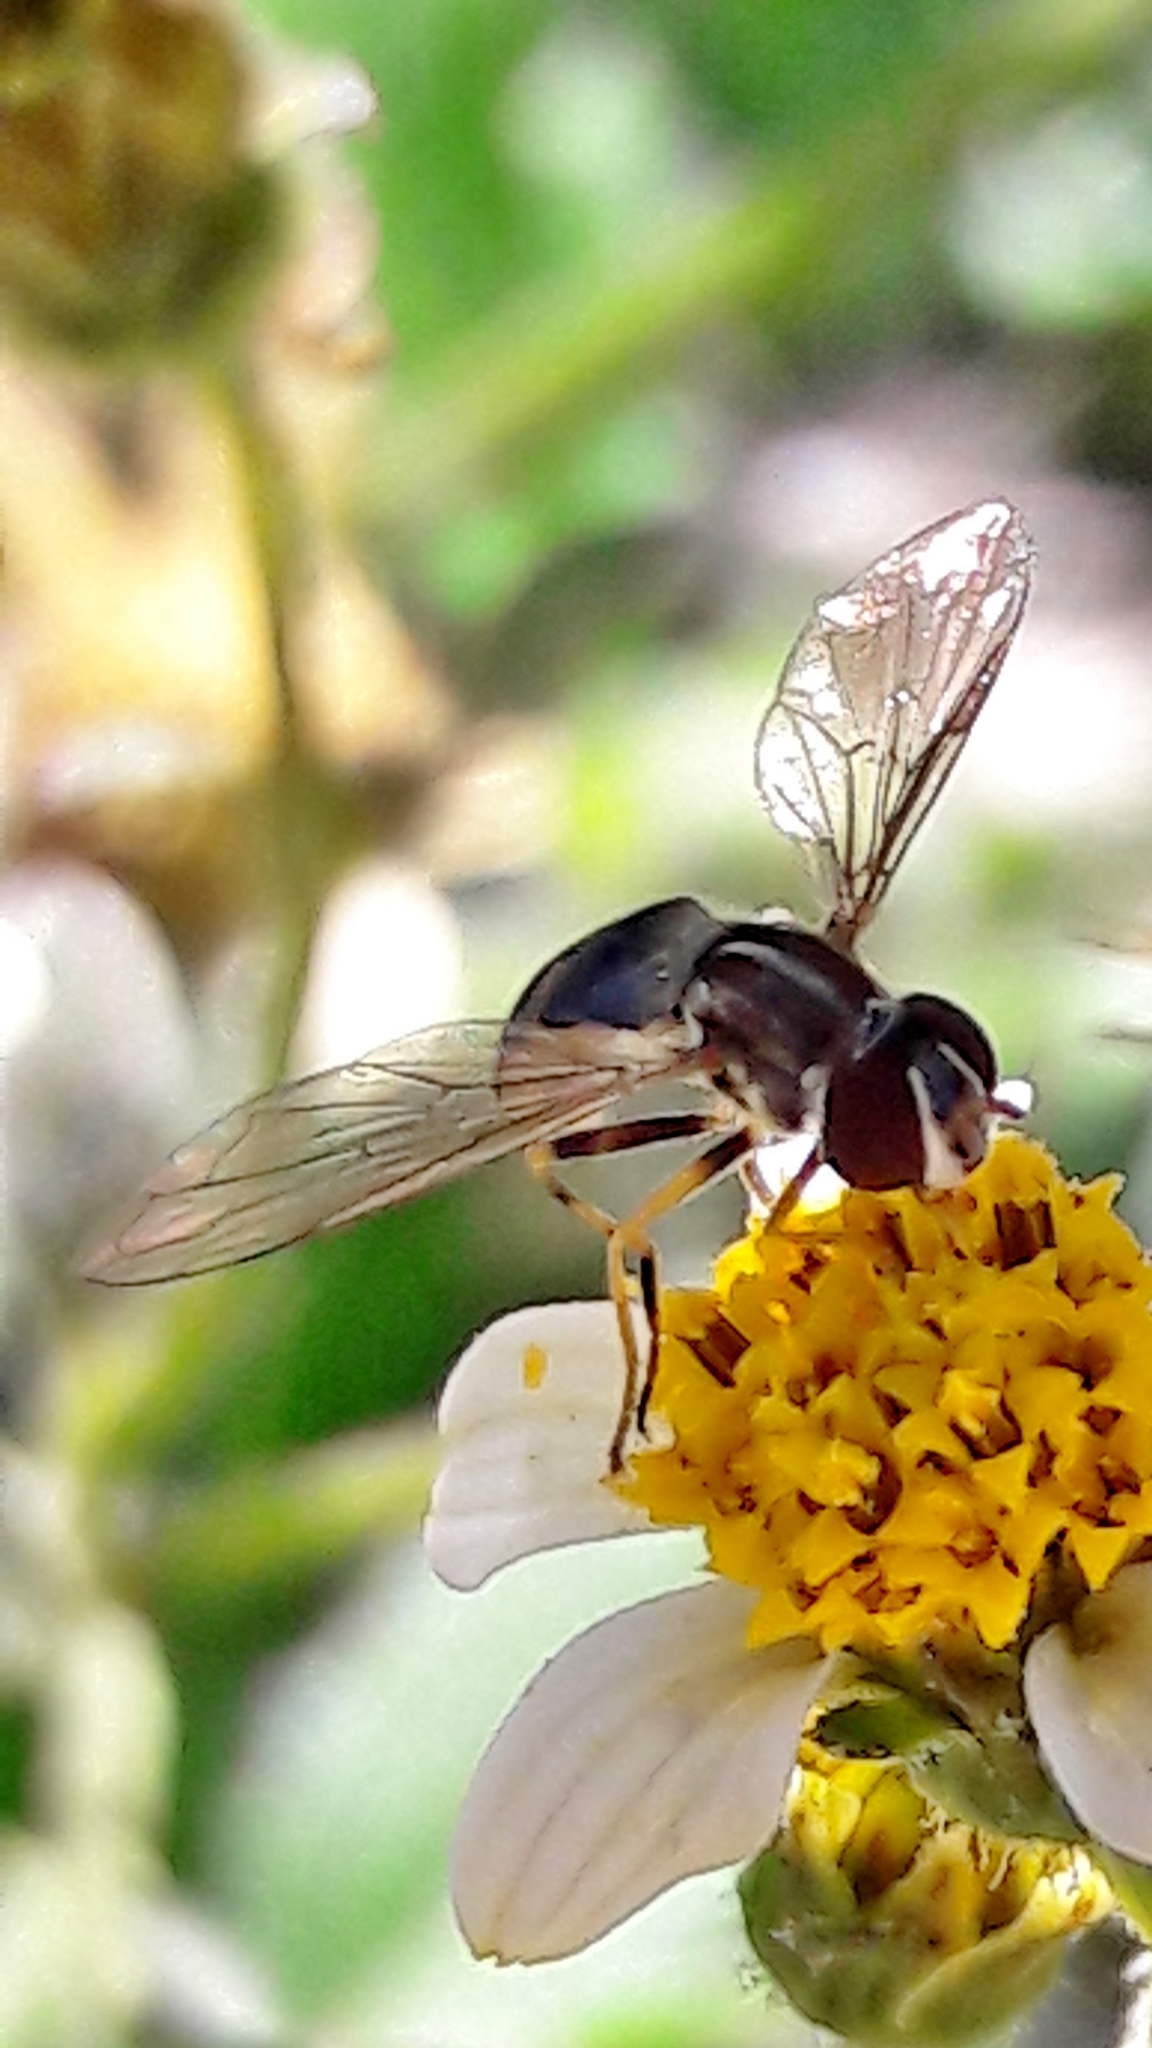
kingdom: Animalia
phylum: Arthropoda
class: Insecta
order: Diptera
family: Syrphidae
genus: Toxomerus
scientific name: Toxomerus dispar
